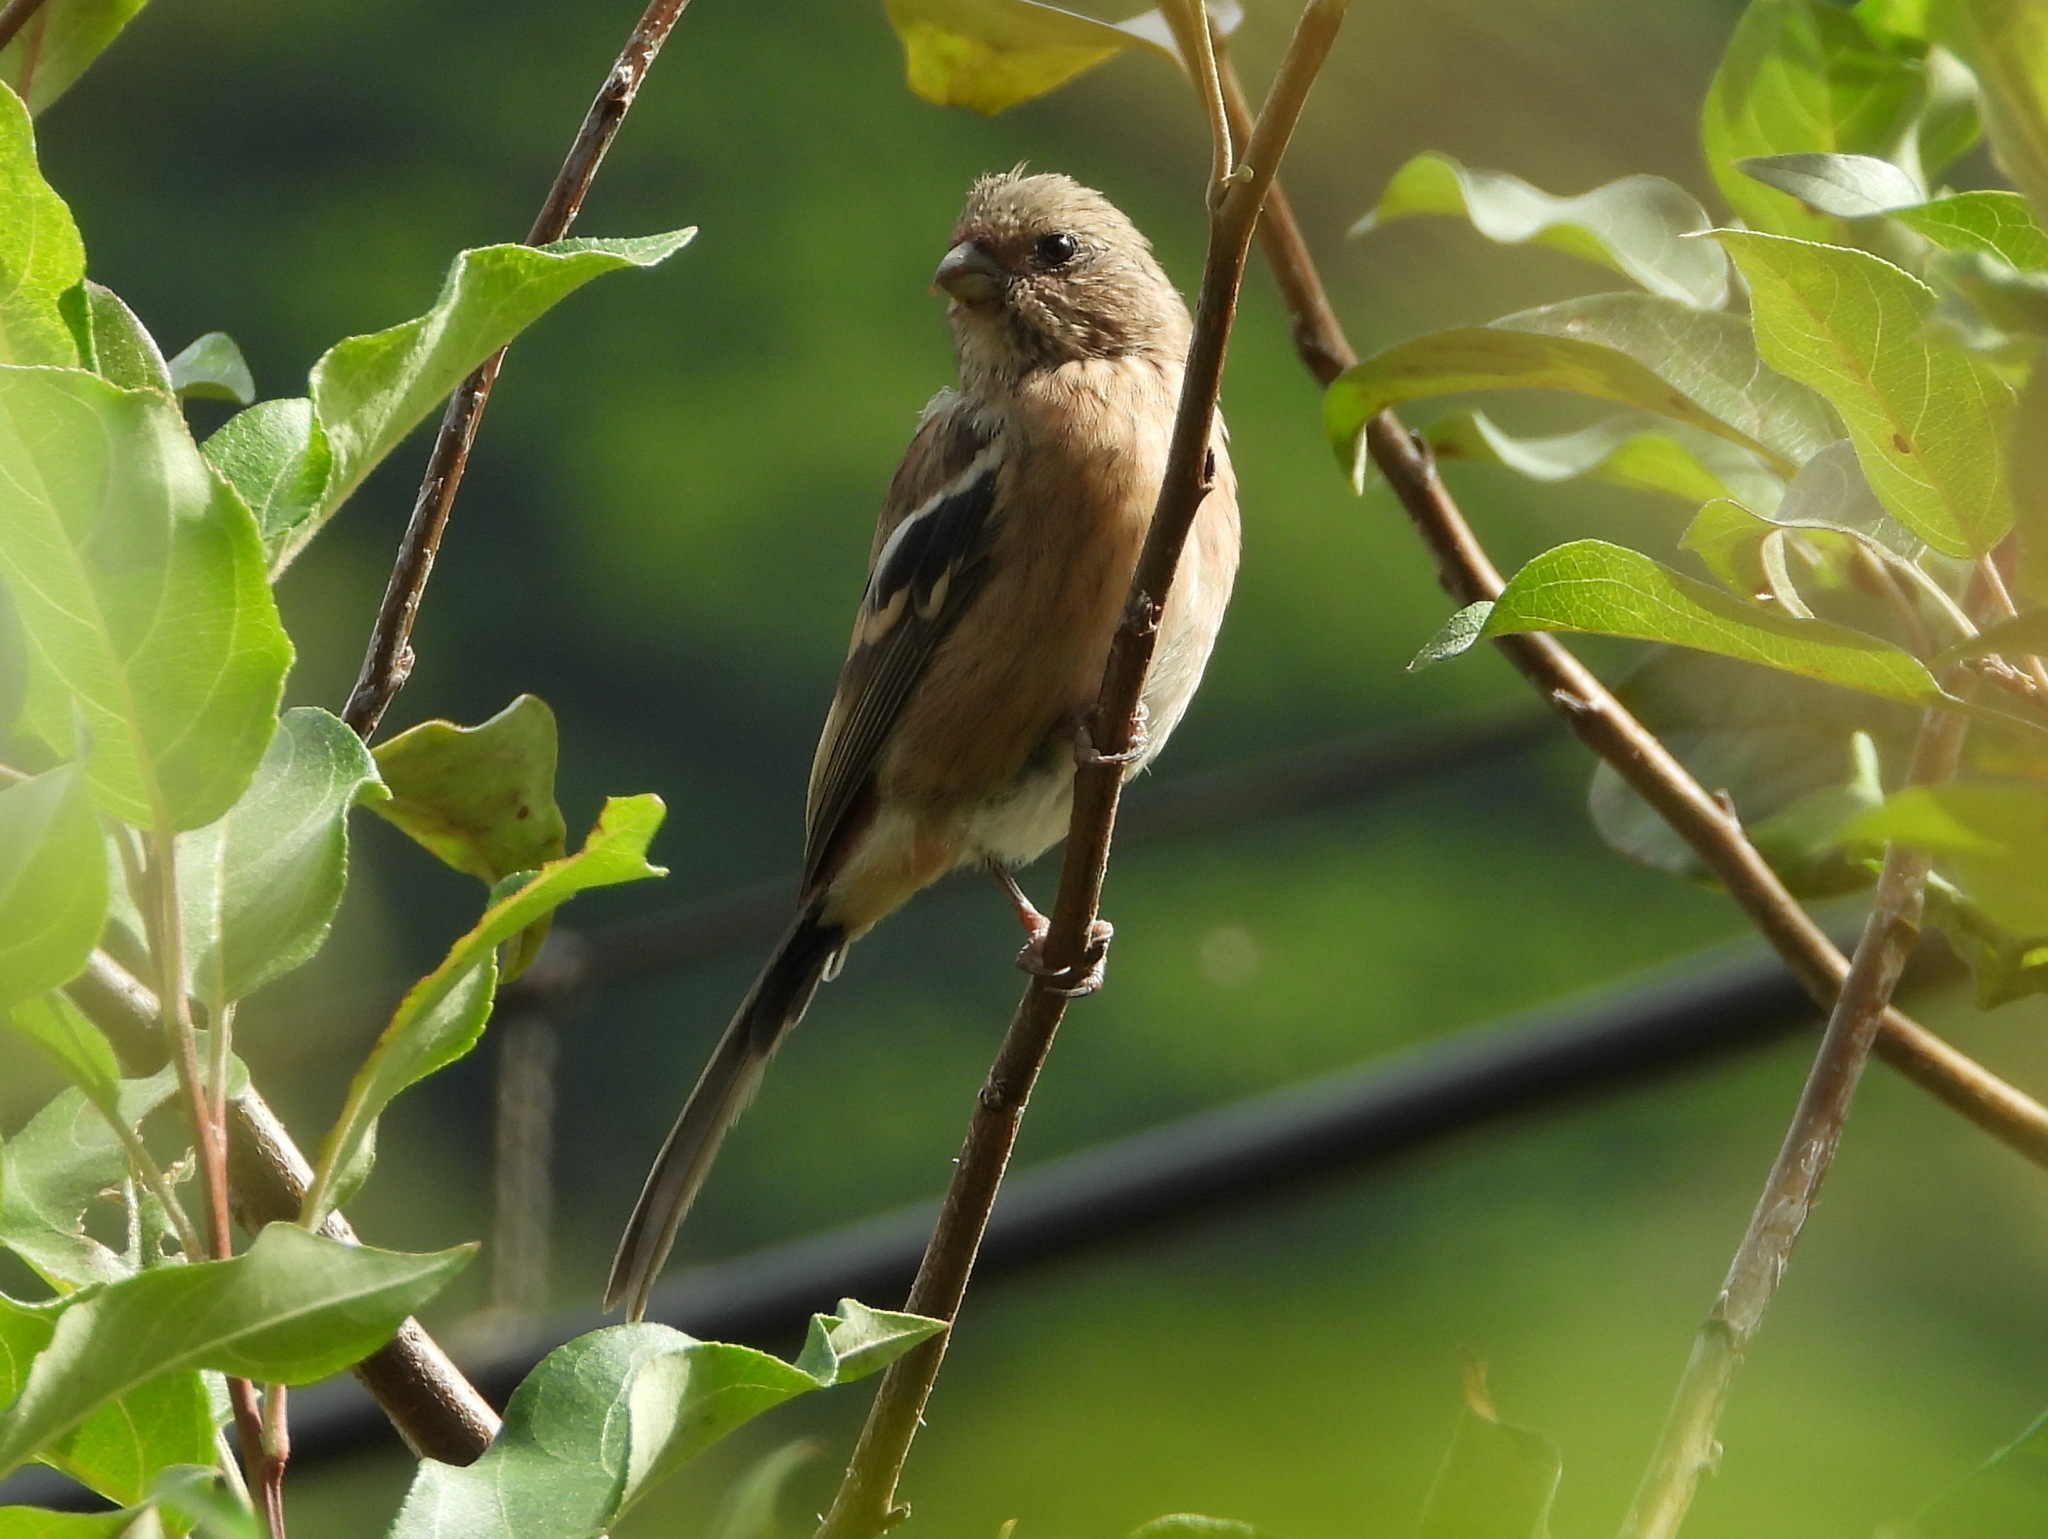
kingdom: Animalia
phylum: Chordata
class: Aves
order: Passeriformes
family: Fringillidae
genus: Carpodacus
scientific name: Carpodacus sibiricus
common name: Long-tailed rosefinch
